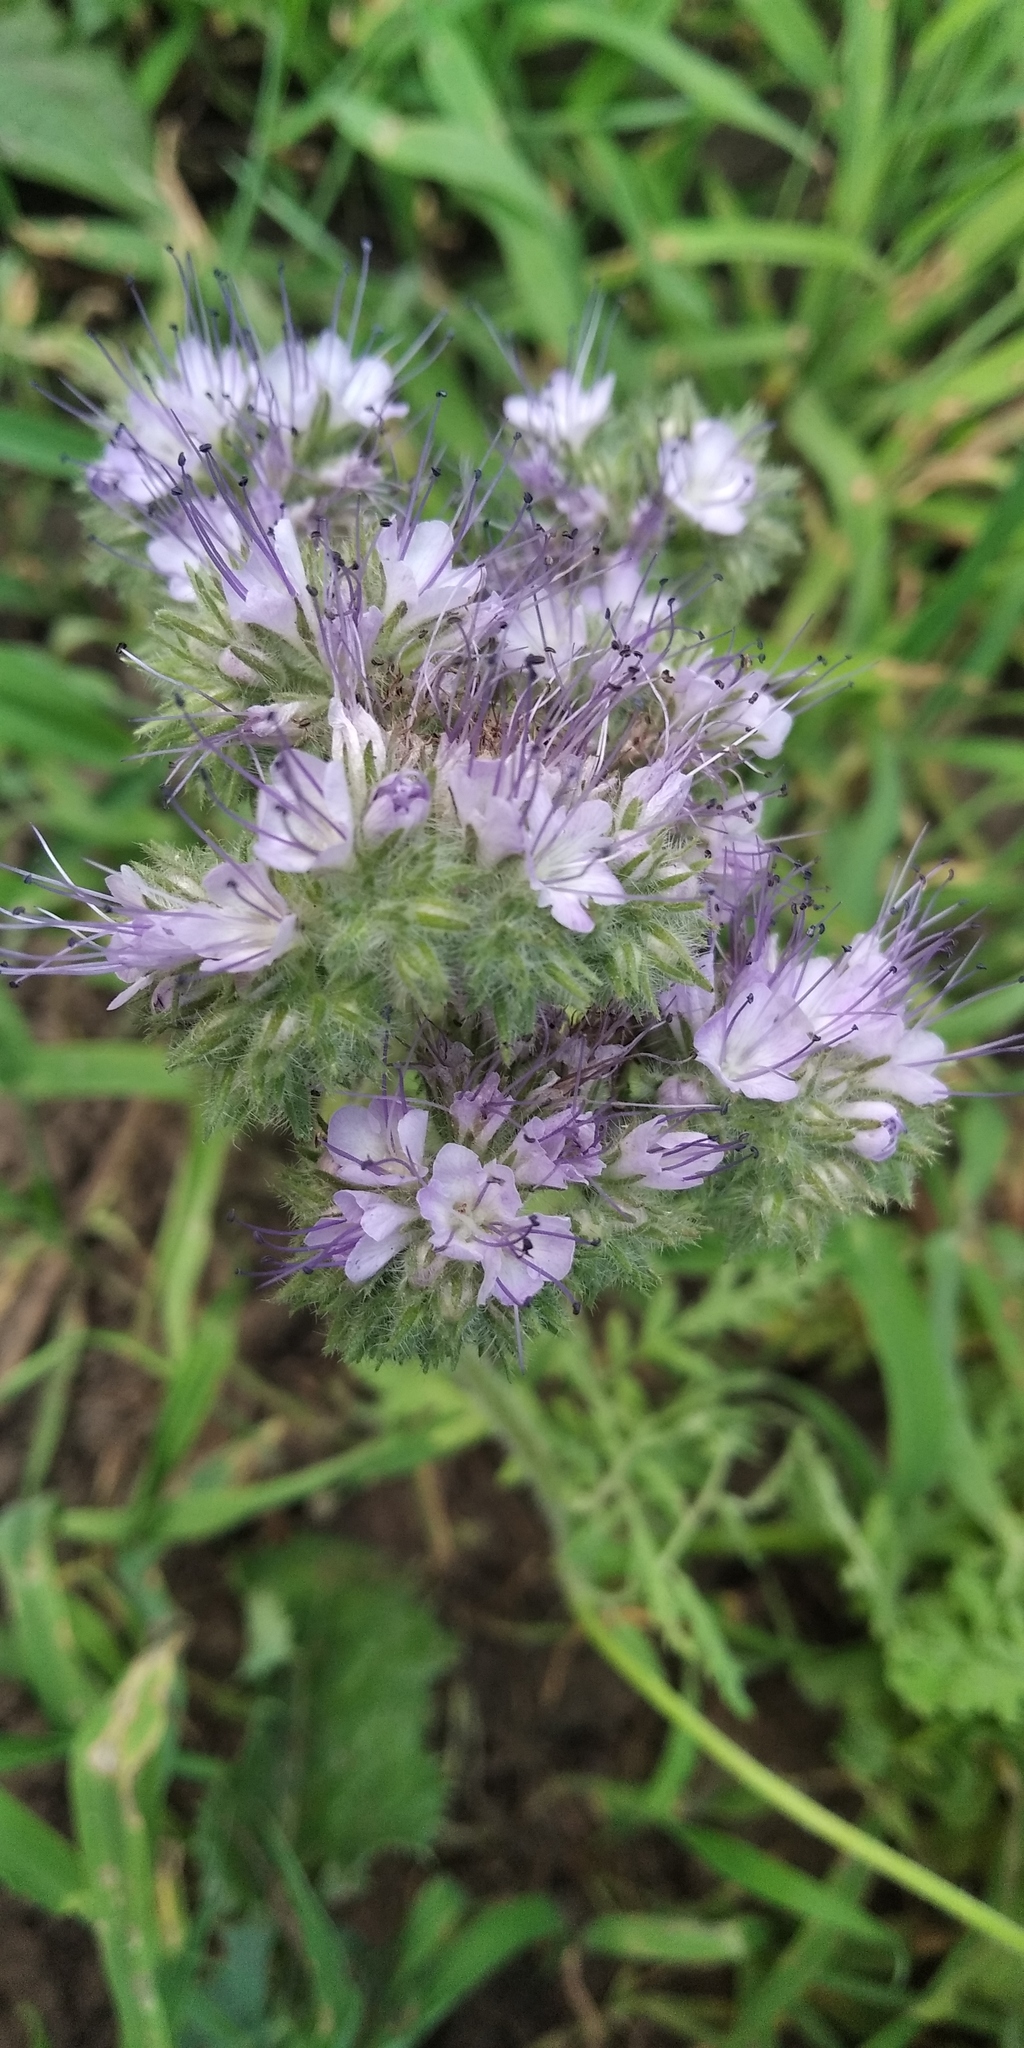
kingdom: Plantae
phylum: Tracheophyta
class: Magnoliopsida
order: Boraginales
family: Hydrophyllaceae
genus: Phacelia
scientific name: Phacelia tanacetifolia
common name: Phacelia
